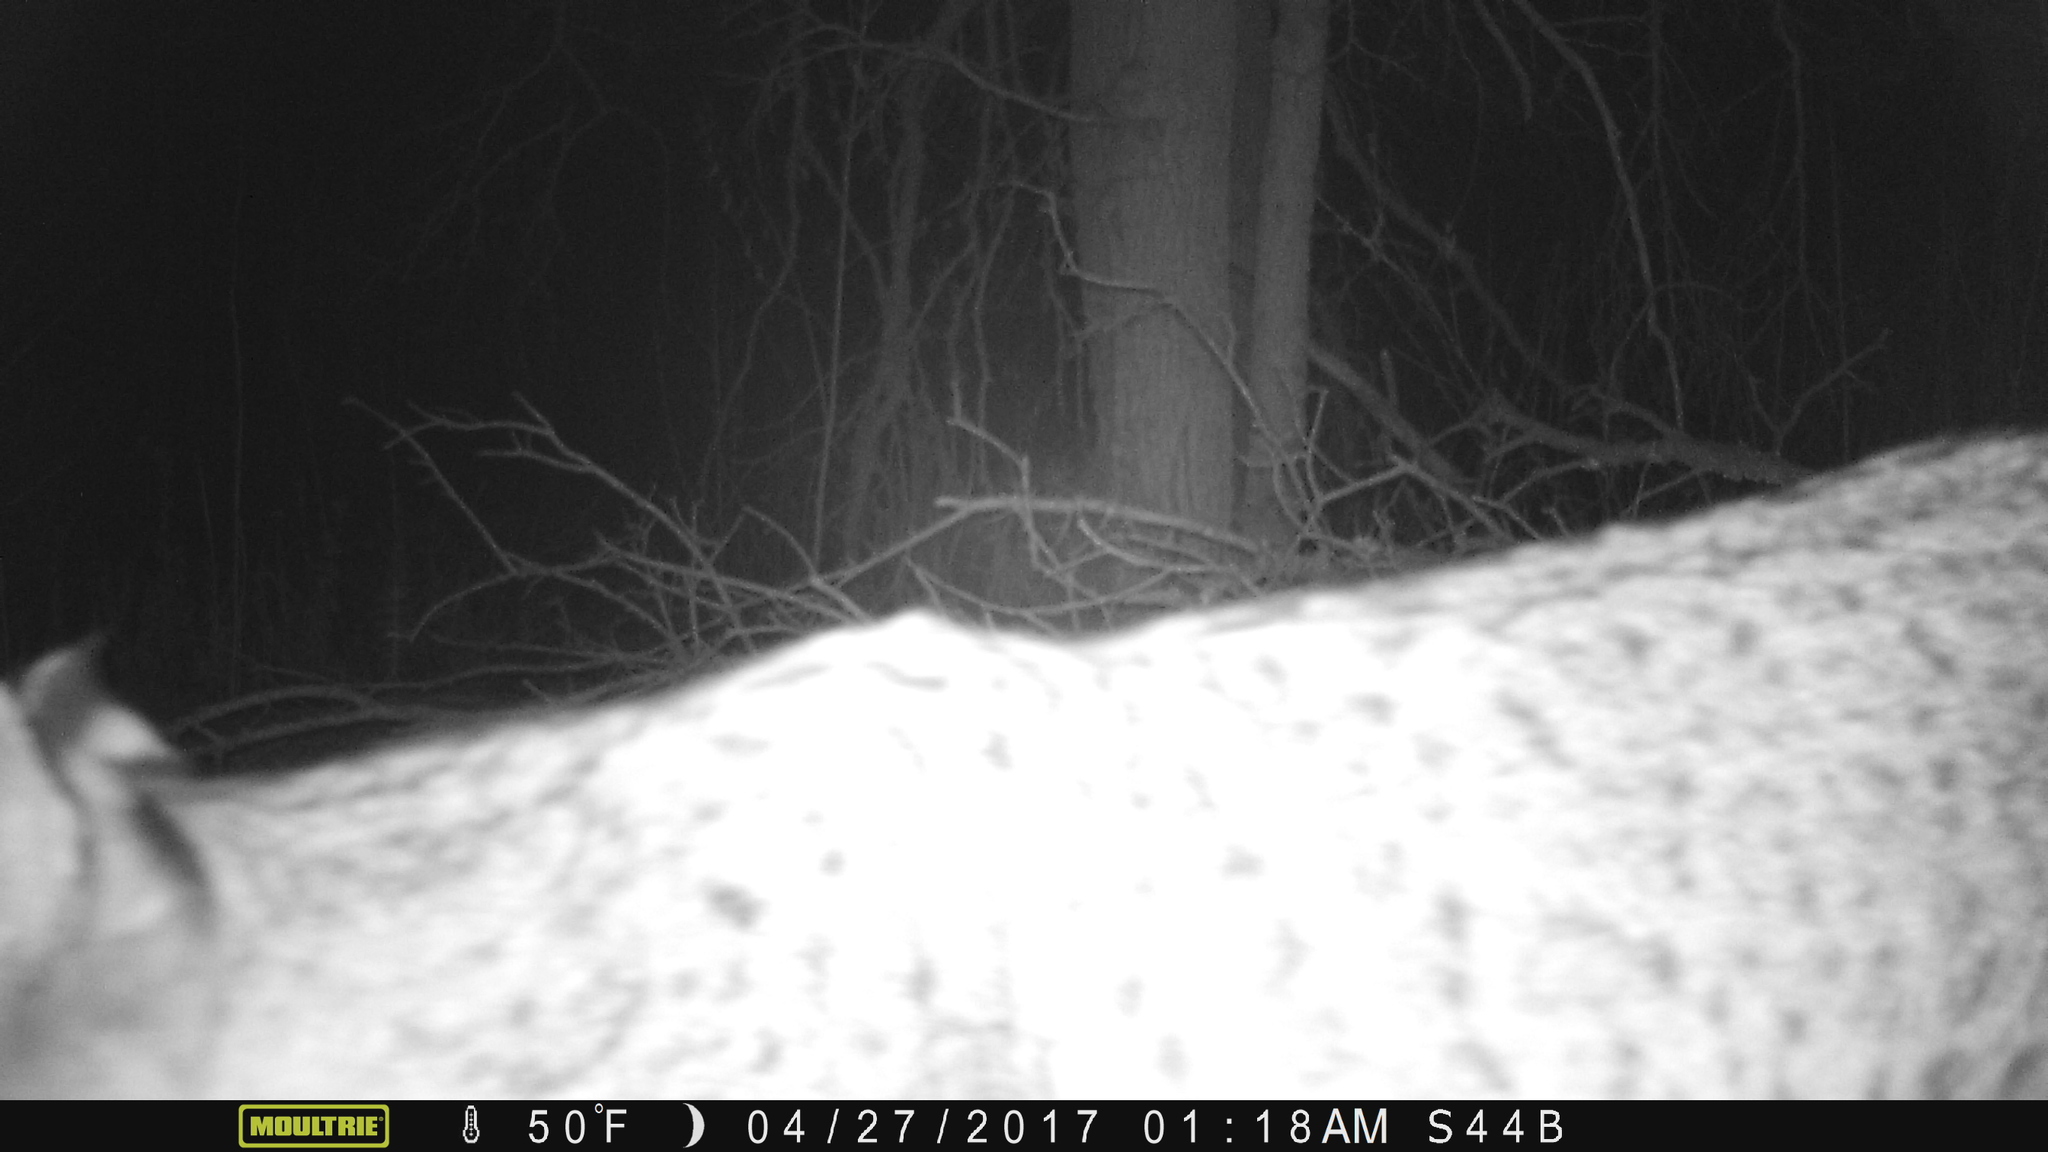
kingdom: Animalia
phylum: Chordata
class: Mammalia
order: Carnivora
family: Felidae
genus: Lynx
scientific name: Lynx rufus
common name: Bobcat
